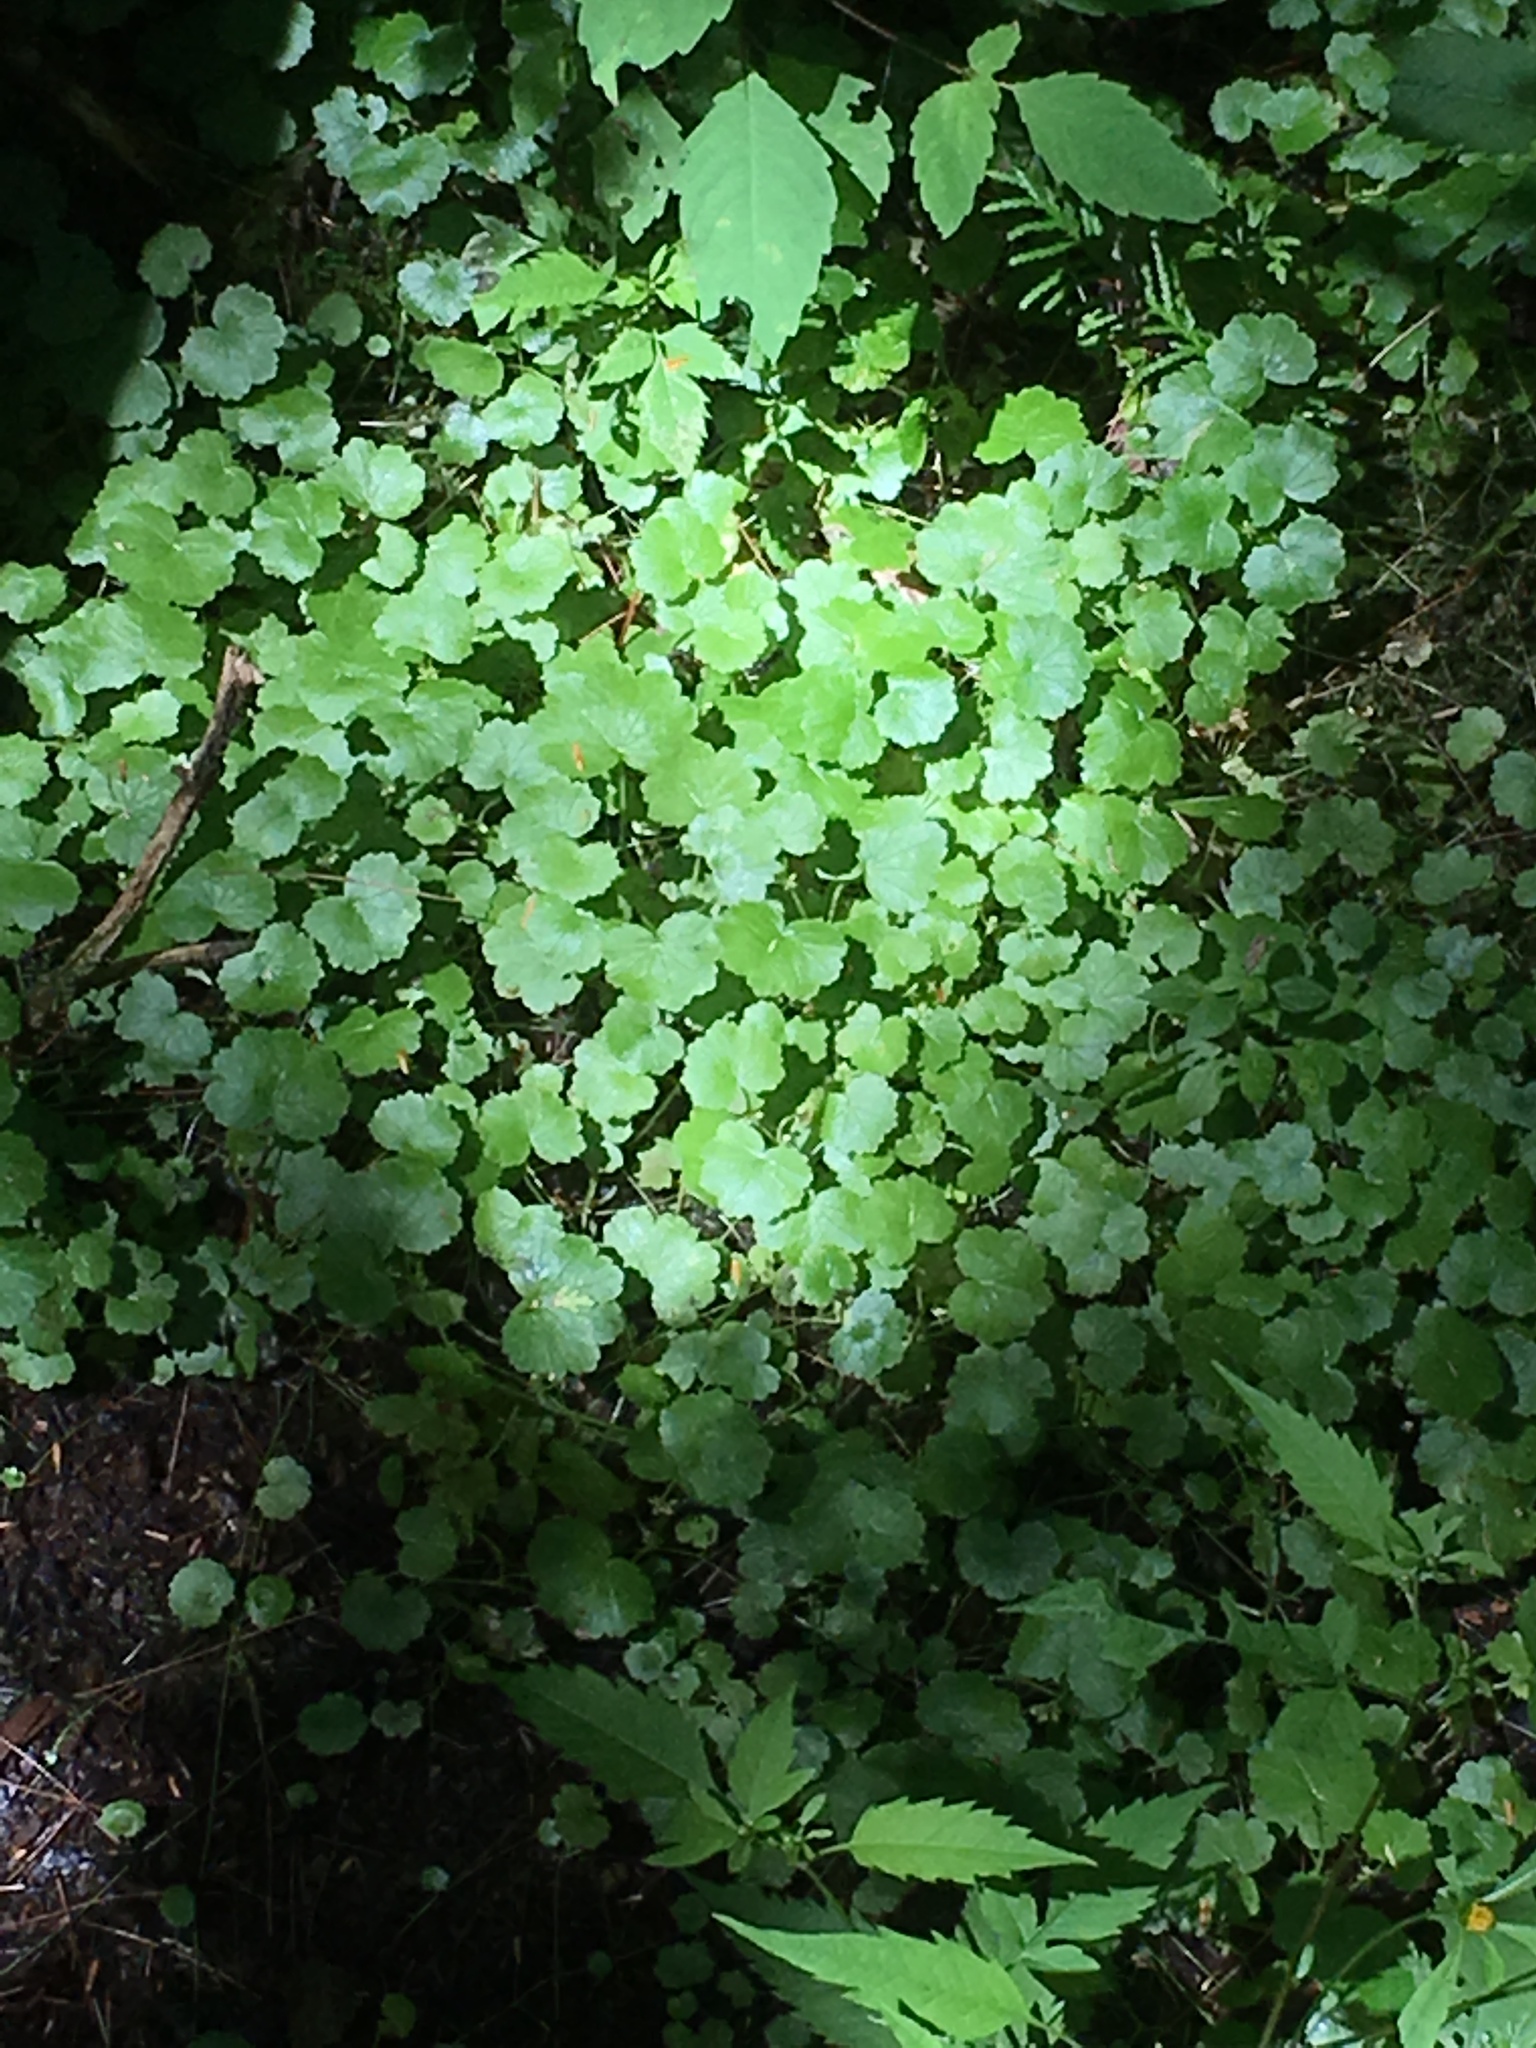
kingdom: Plantae
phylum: Tracheophyta
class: Magnoliopsida
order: Apiales
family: Araliaceae
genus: Hydrocotyle
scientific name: Hydrocotyle americana
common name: American water-pennywort
